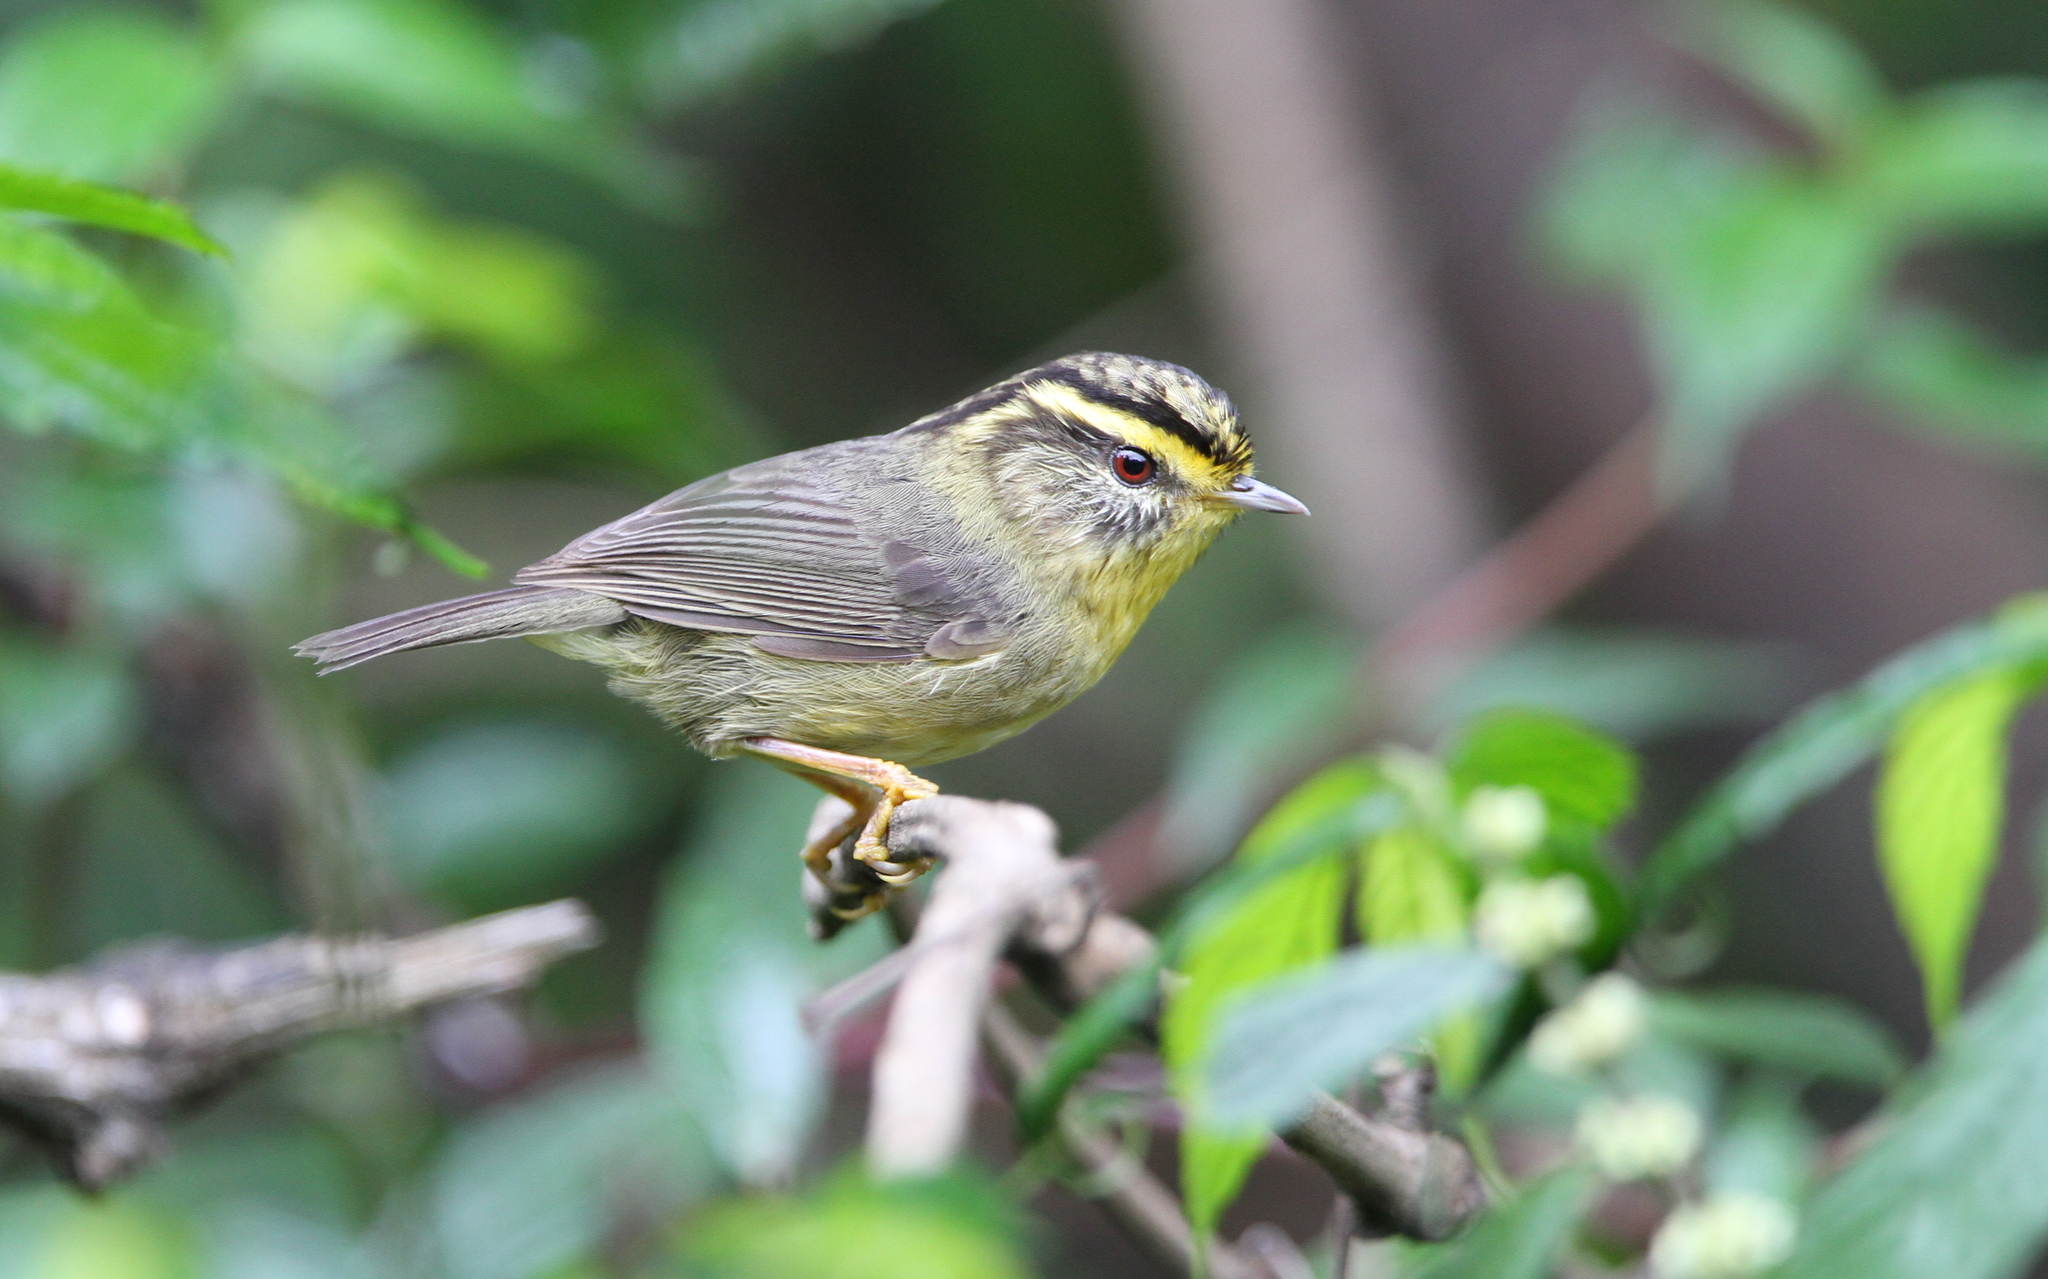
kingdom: Animalia
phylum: Chordata
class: Aves
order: Passeriformes
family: Pellorneidae
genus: Alcippe
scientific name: Alcippe cinerea
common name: Yellow-throated fulvetta
